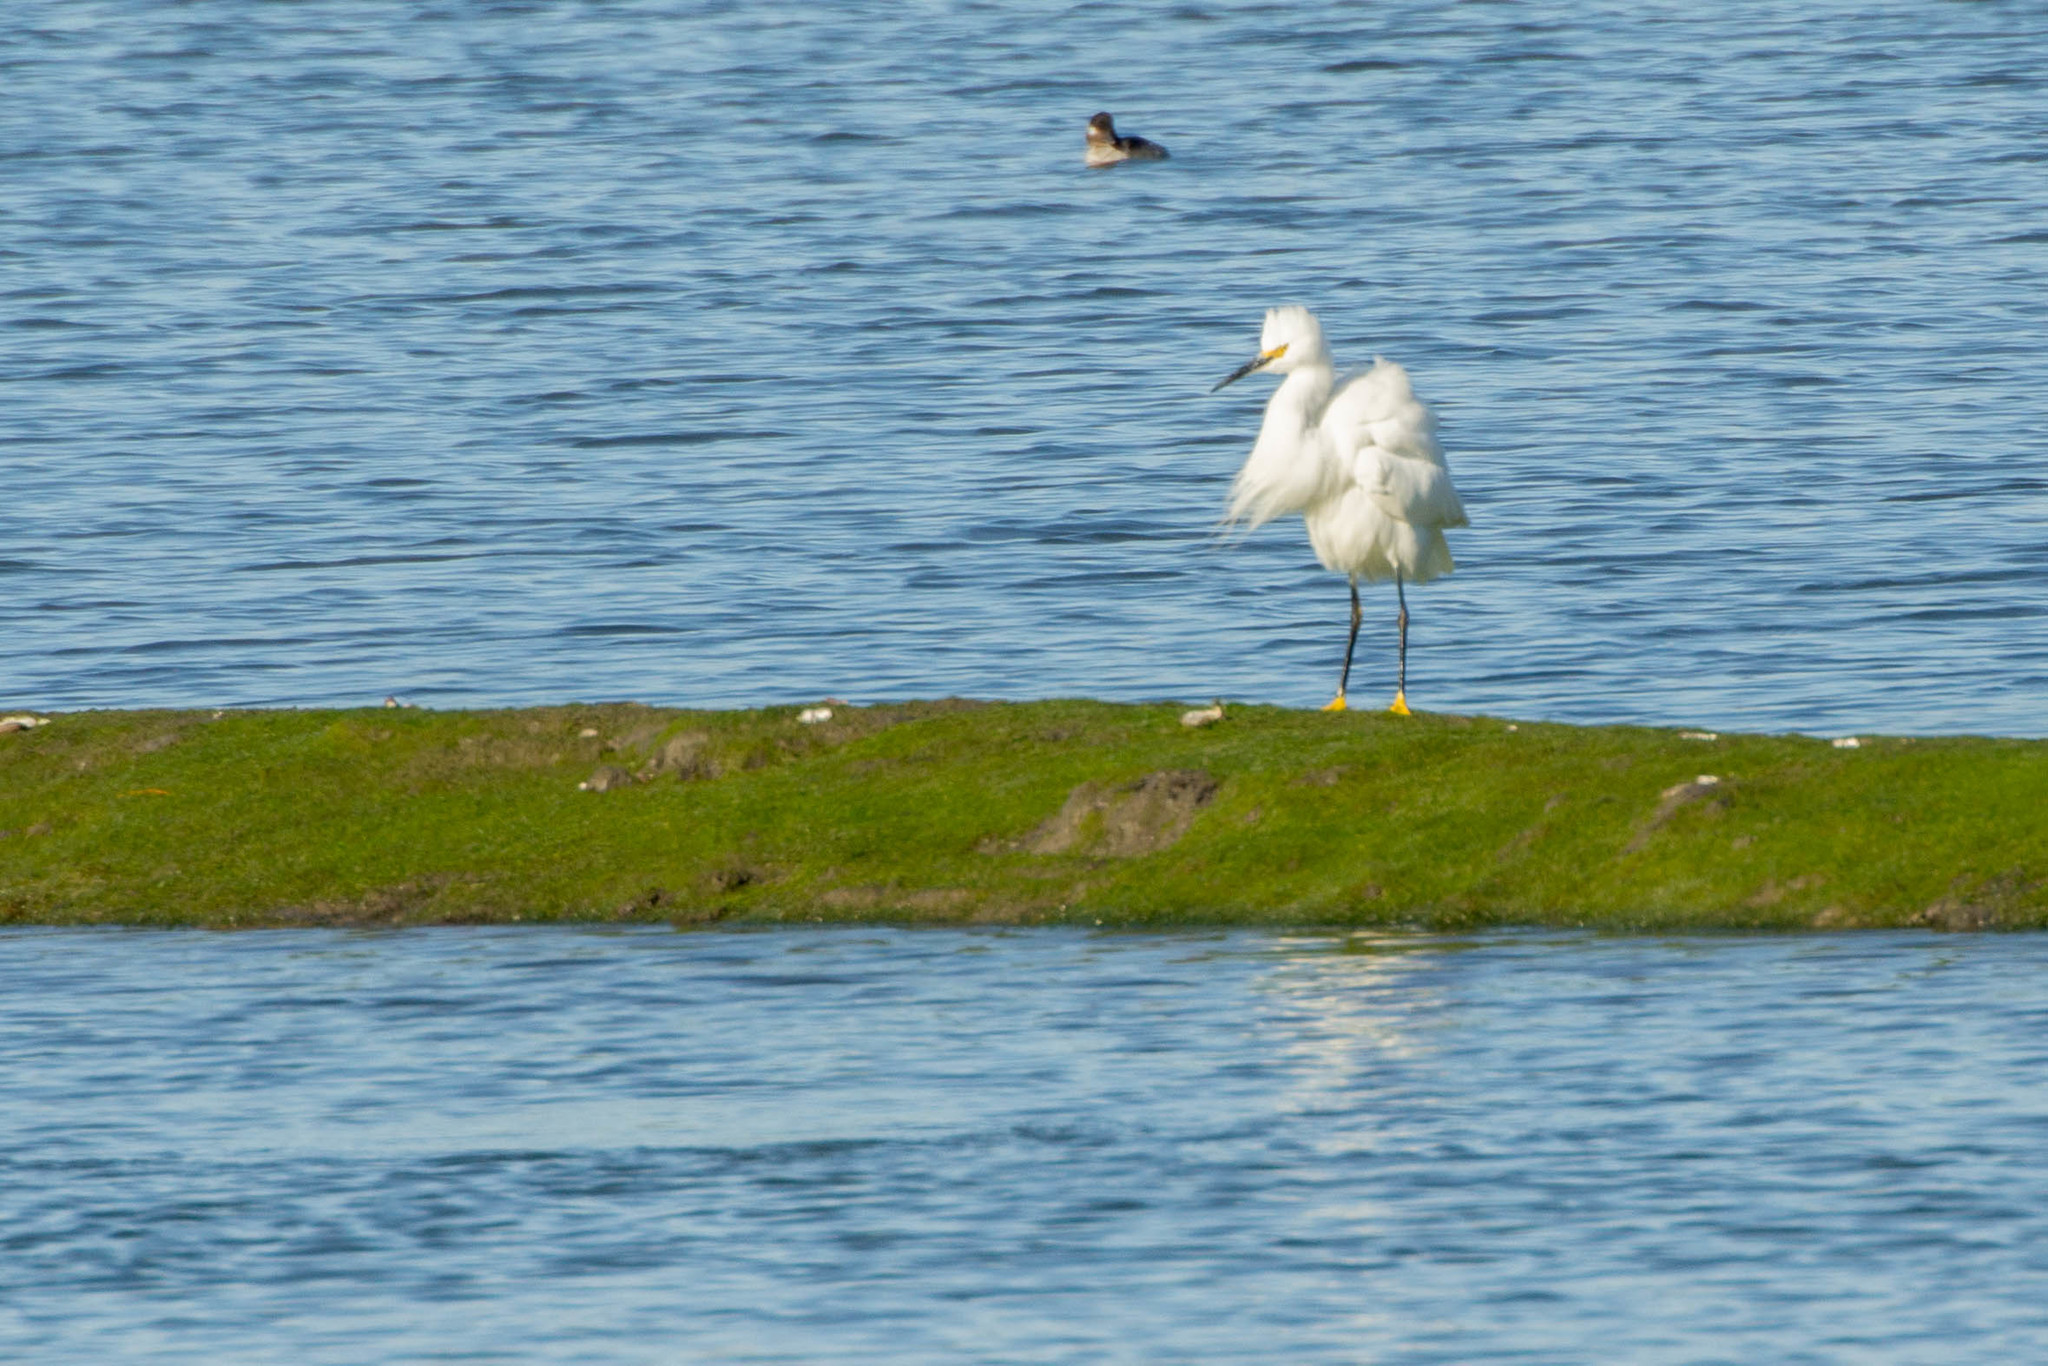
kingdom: Animalia
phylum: Chordata
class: Aves
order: Pelecaniformes
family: Ardeidae
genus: Egretta
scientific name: Egretta thula
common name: Snowy egret
